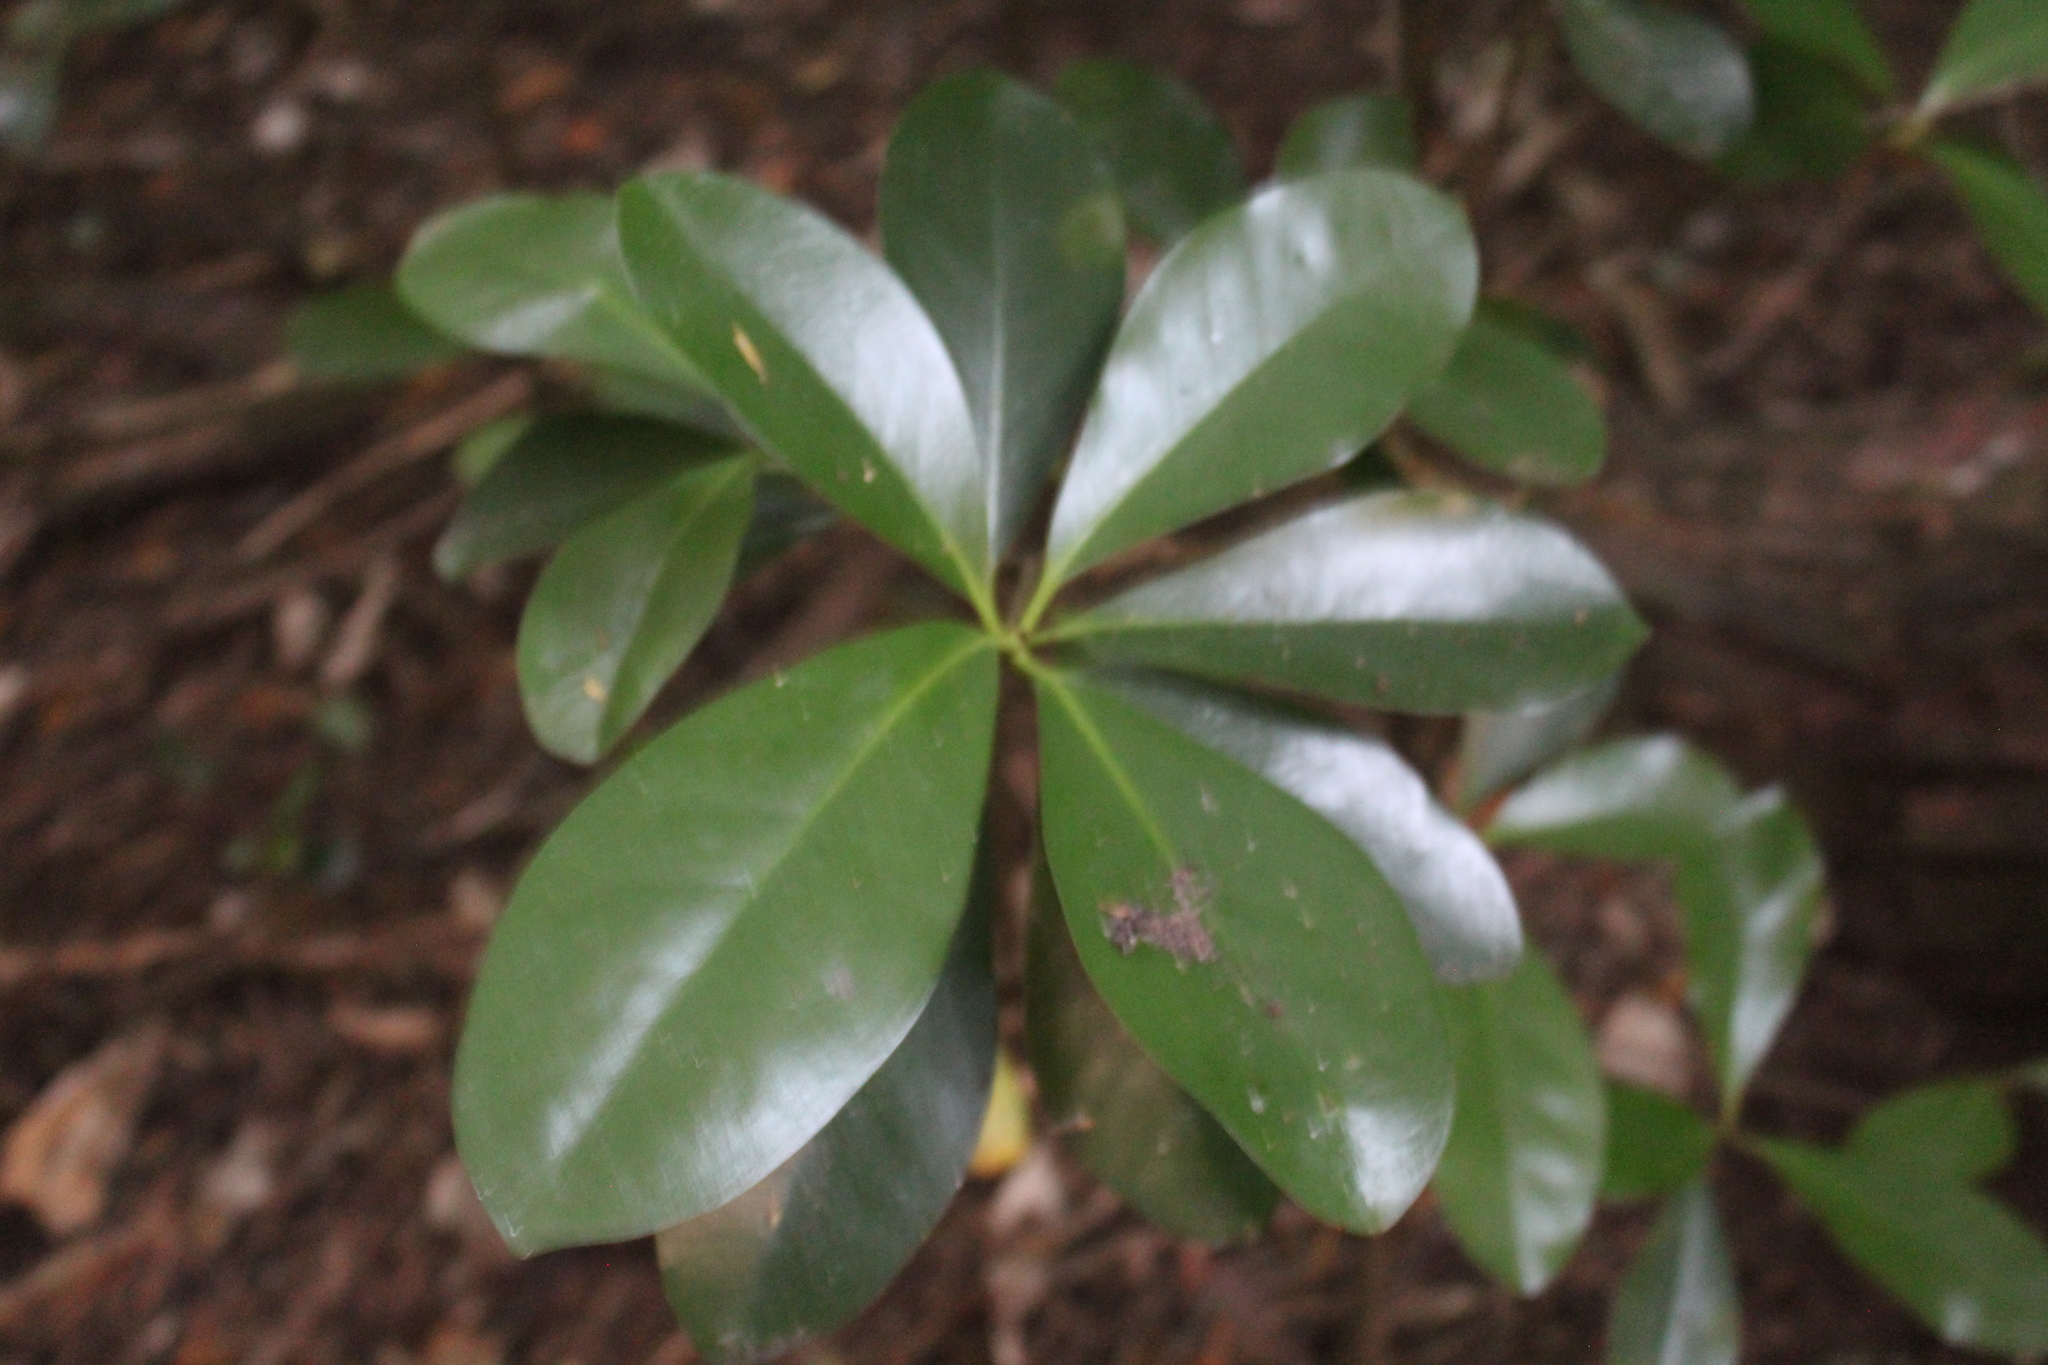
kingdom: Plantae
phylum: Tracheophyta
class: Magnoliopsida
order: Cucurbitales
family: Corynocarpaceae
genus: Corynocarpus
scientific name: Corynocarpus laevigatus
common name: New zealand laurel
